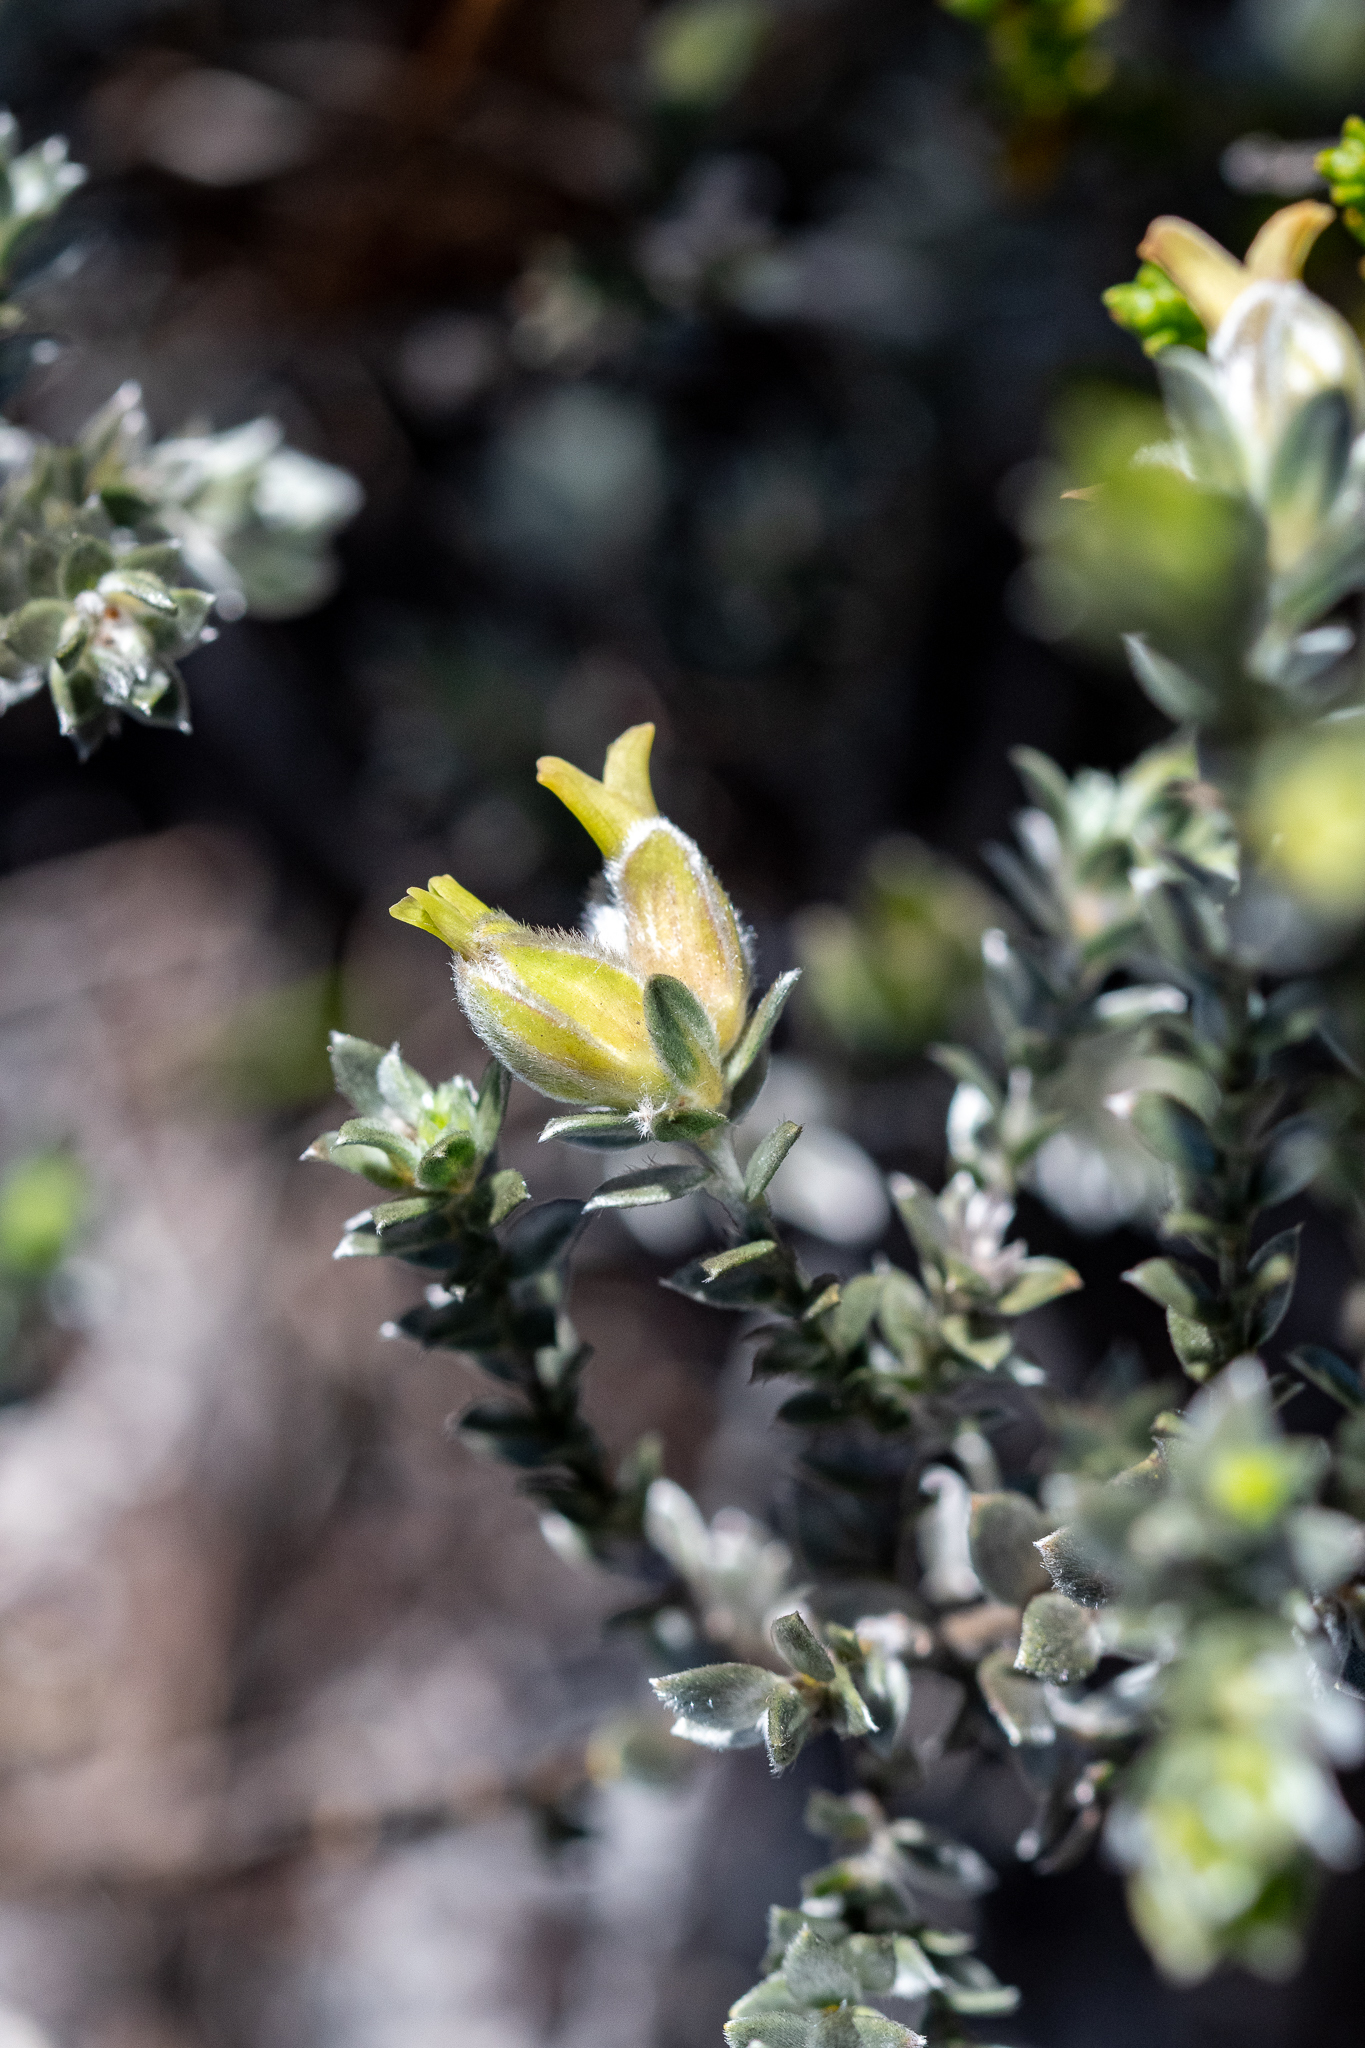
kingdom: Plantae
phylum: Tracheophyta
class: Magnoliopsida
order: Fabales
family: Fabaceae
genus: Amphithalea
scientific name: Amphithalea tomentosa
